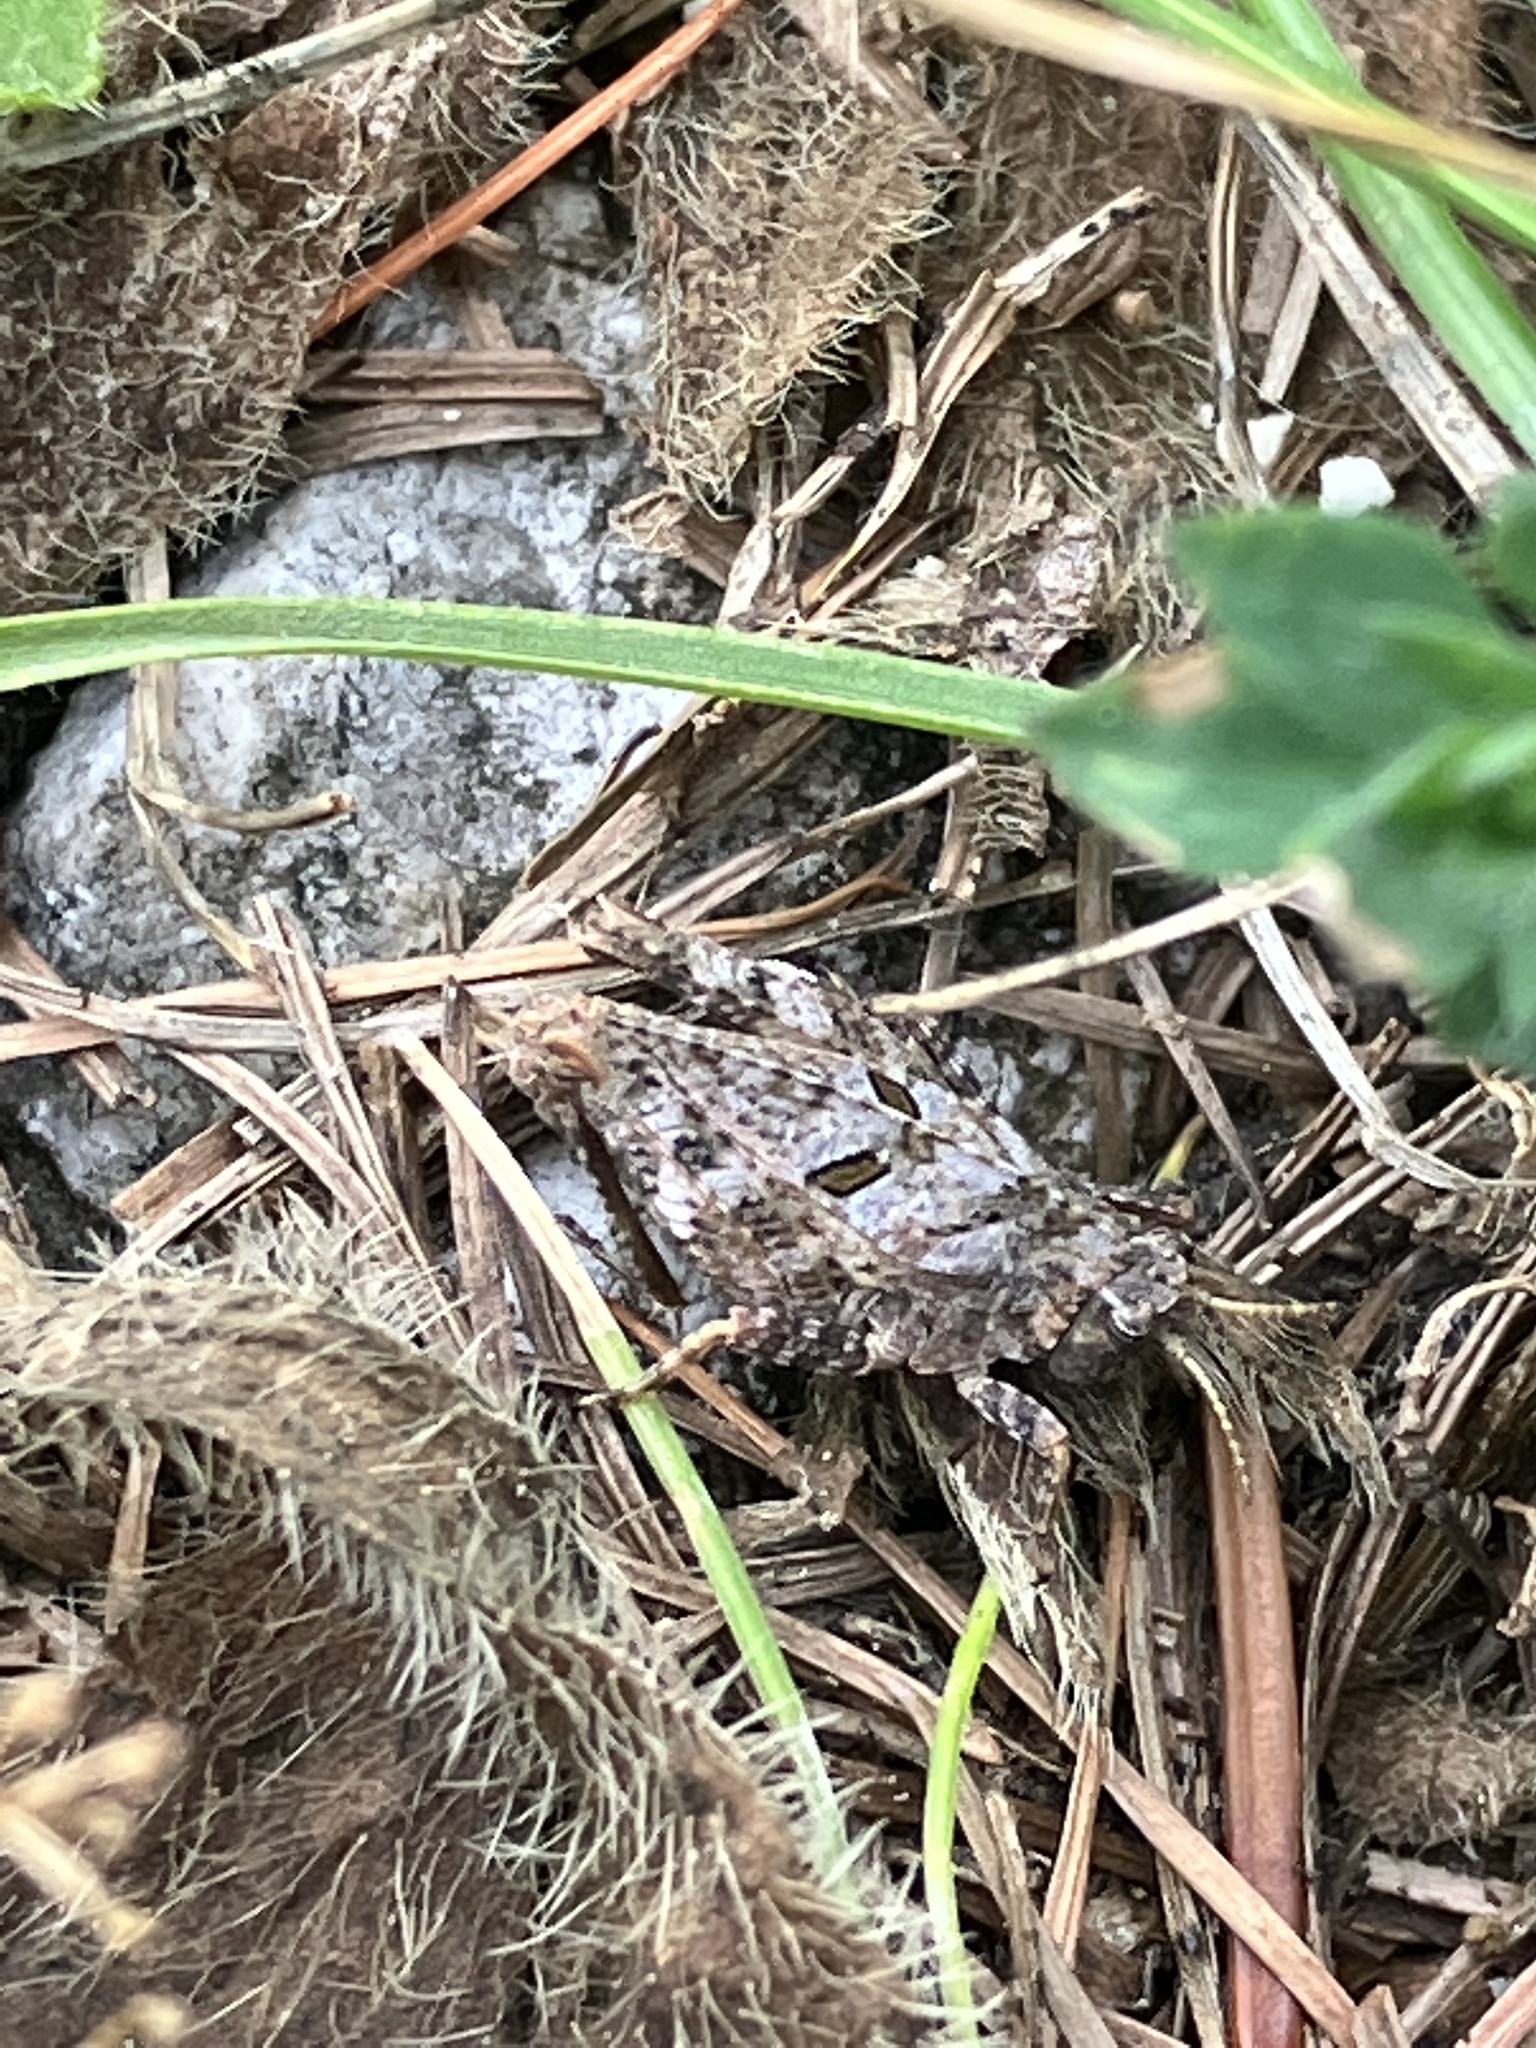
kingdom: Animalia
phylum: Arthropoda
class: Insecta
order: Orthoptera
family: Tetrigidae
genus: Tetrix
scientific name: Tetrix bipunctata
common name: Two-spotted groundhopper
